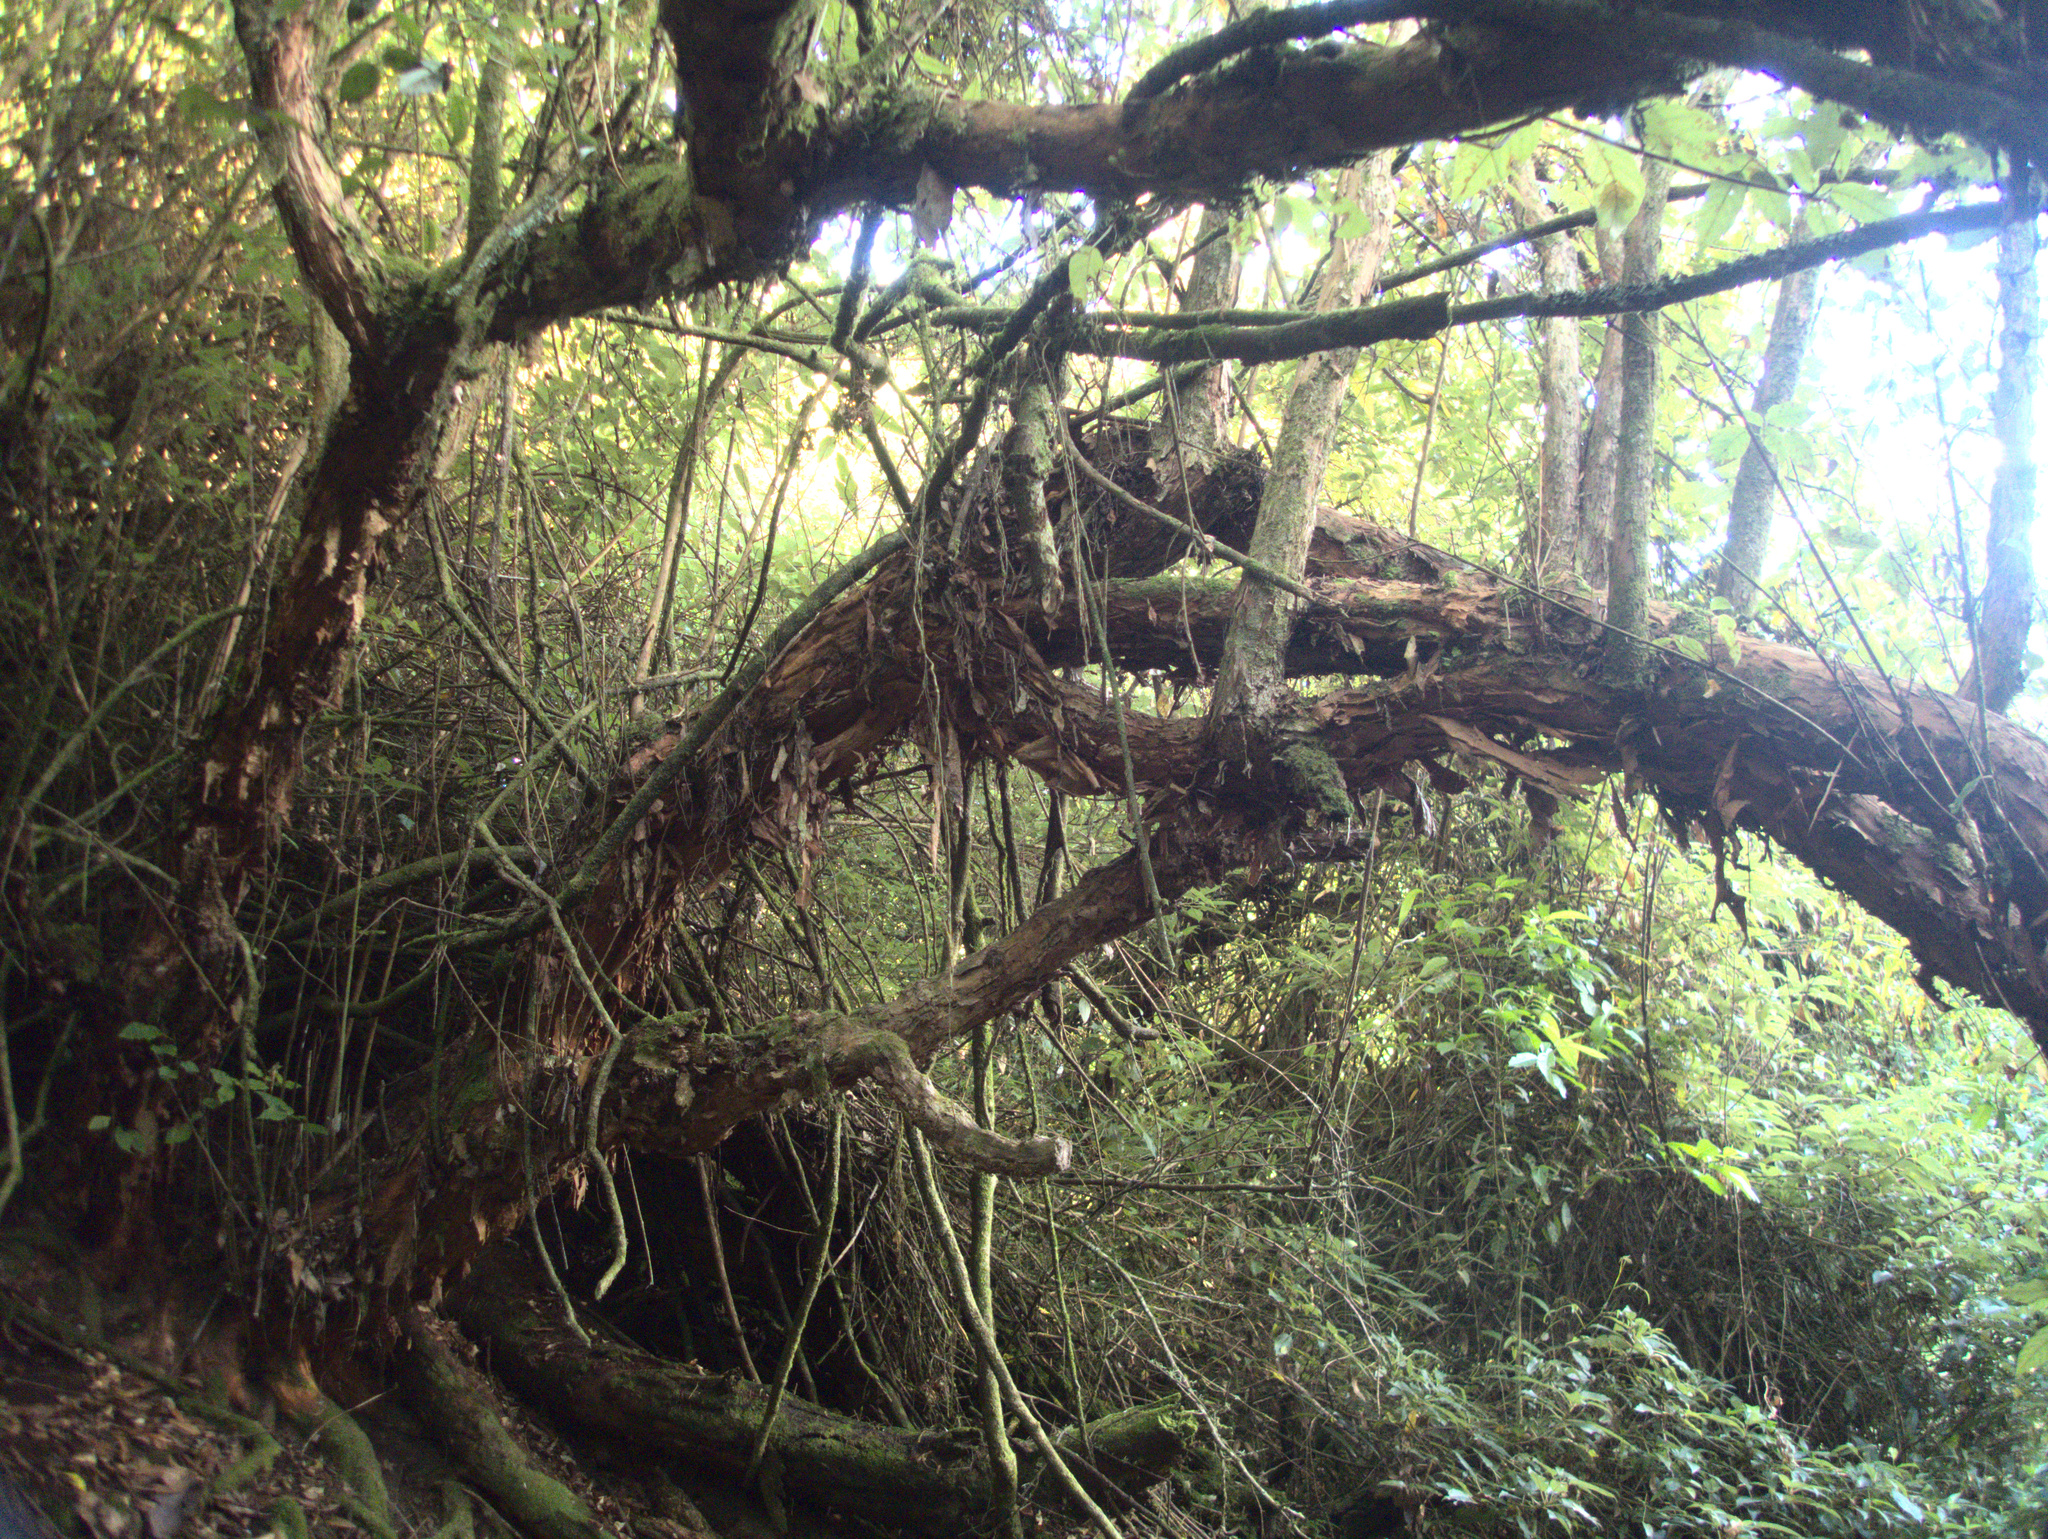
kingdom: Plantae
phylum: Tracheophyta
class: Magnoliopsida
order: Myrtales
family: Onagraceae
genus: Fuchsia
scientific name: Fuchsia excorticata
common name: Tree fuchsia
